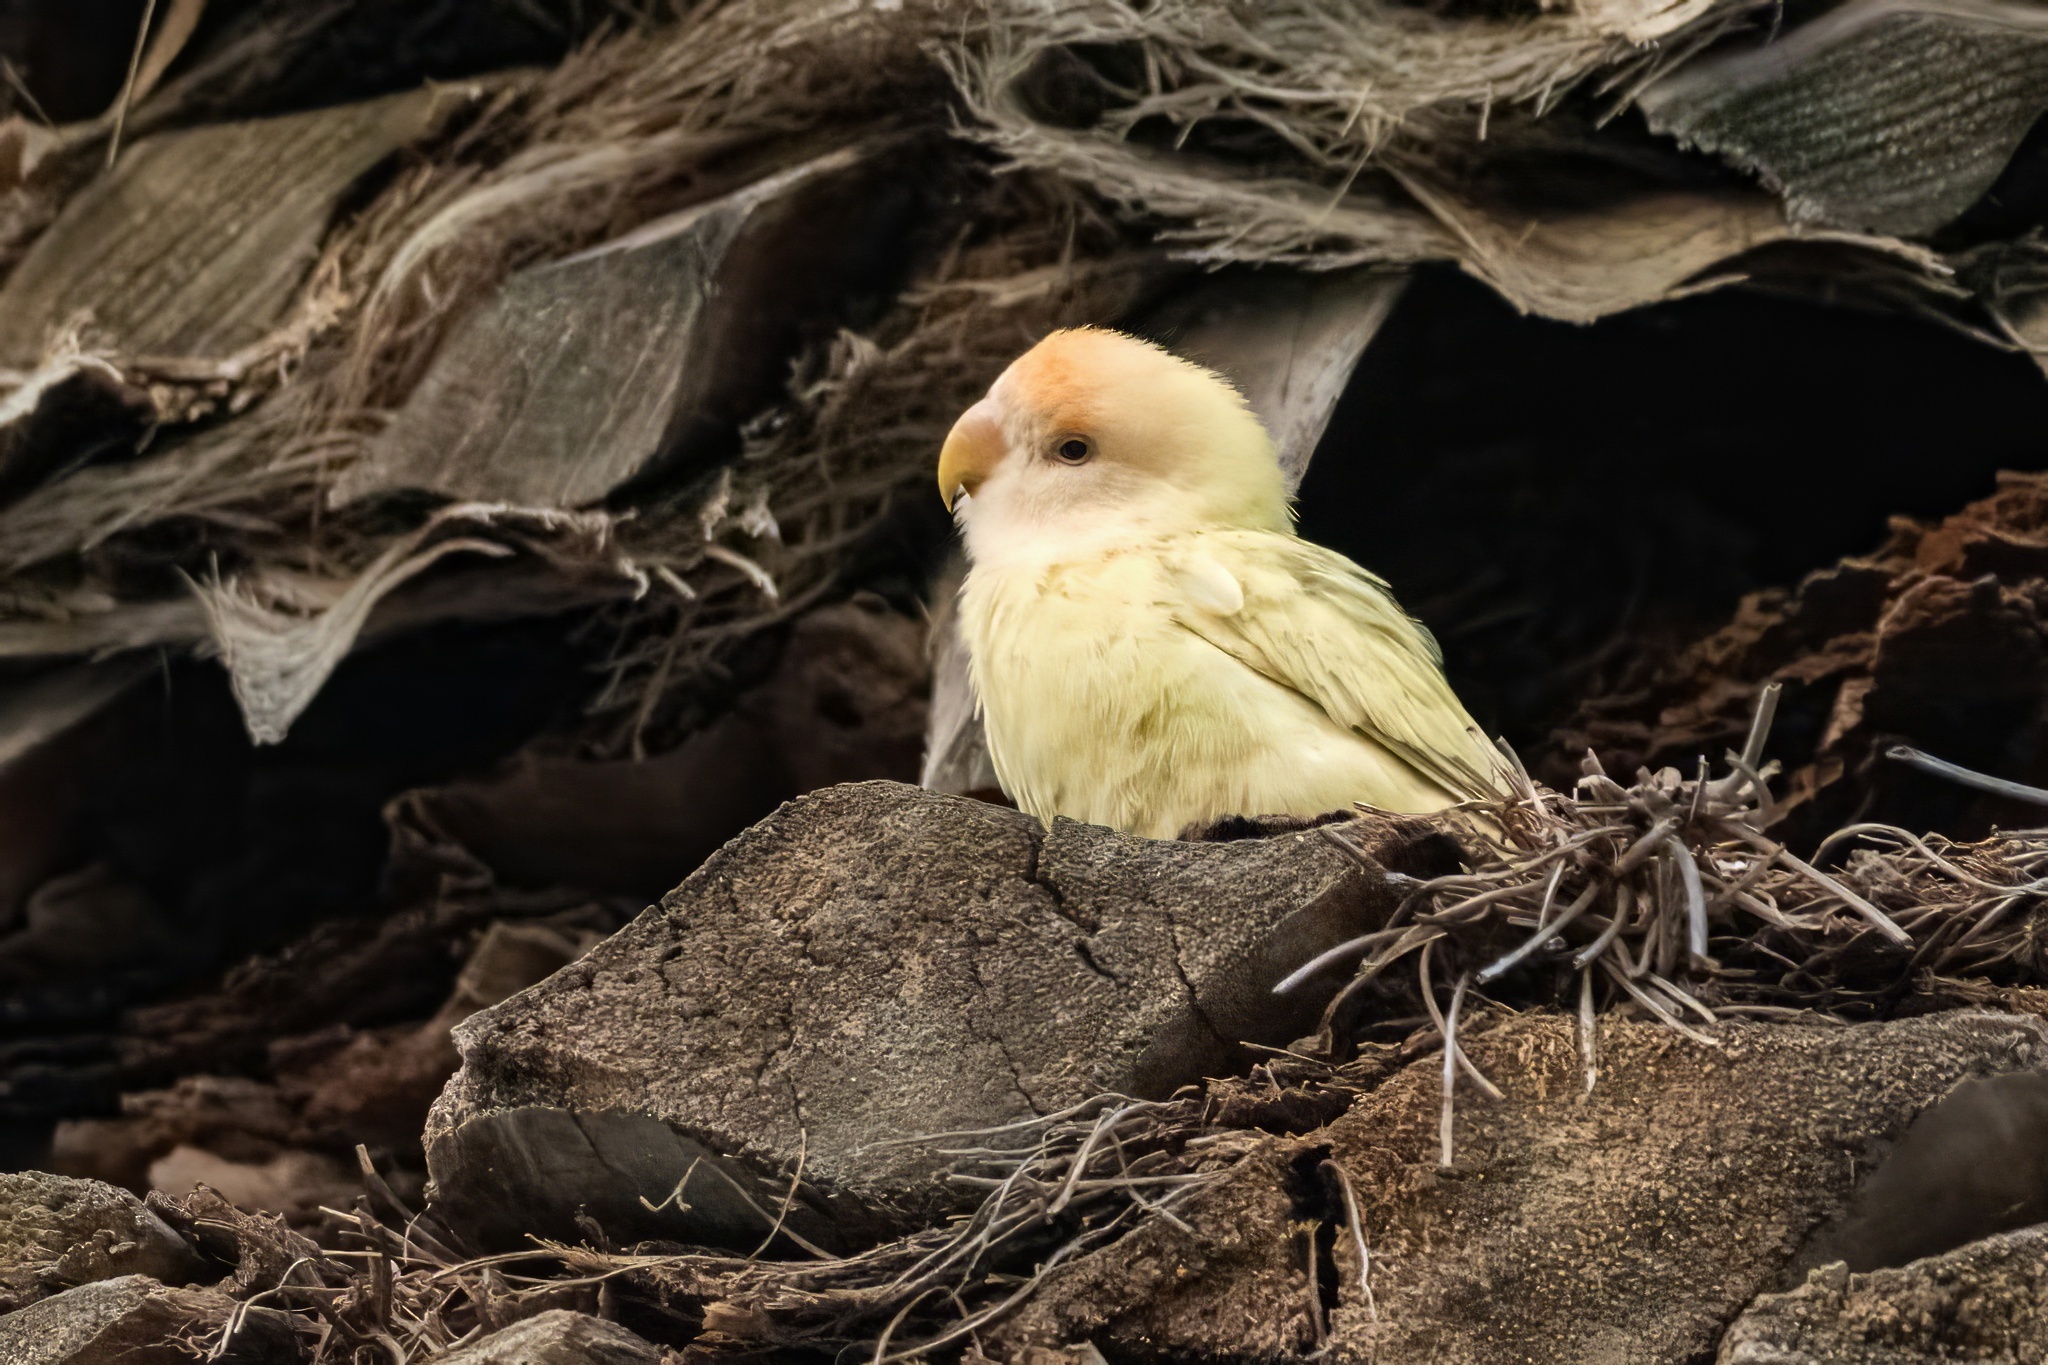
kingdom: Animalia
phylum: Chordata
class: Aves
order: Psittaciformes
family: Psittacidae
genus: Agapornis
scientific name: Agapornis roseicollis
